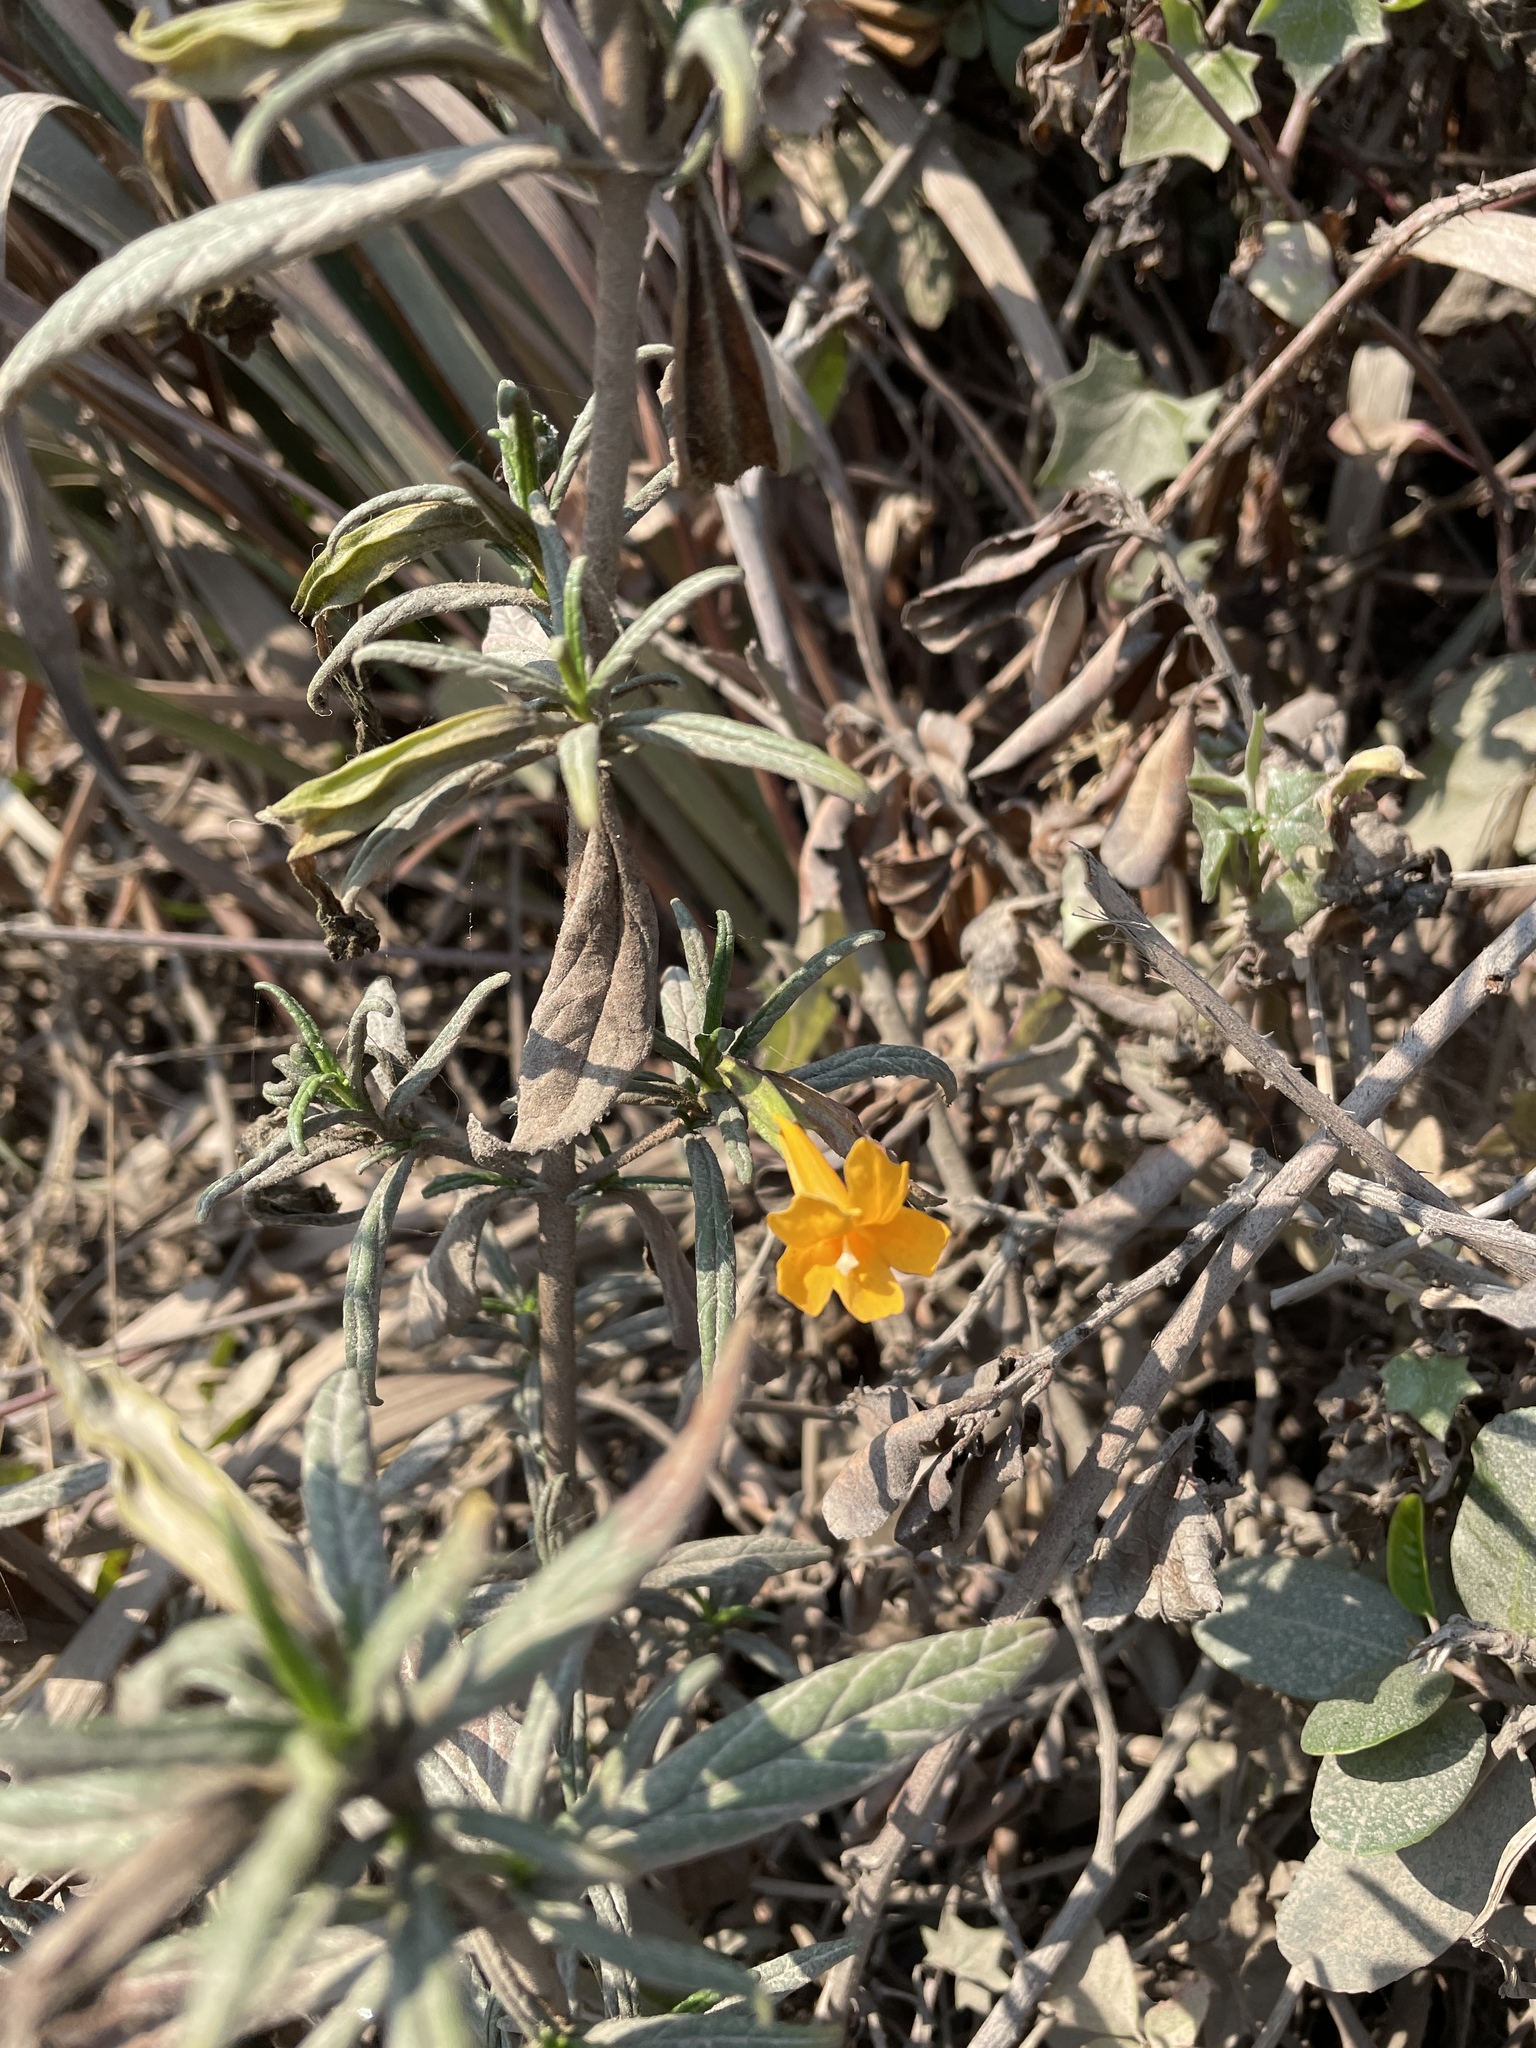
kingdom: Plantae
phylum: Tracheophyta
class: Magnoliopsida
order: Lamiales
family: Phrymaceae
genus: Diplacus
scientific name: Diplacus aurantiacus
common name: Bush monkey-flower
